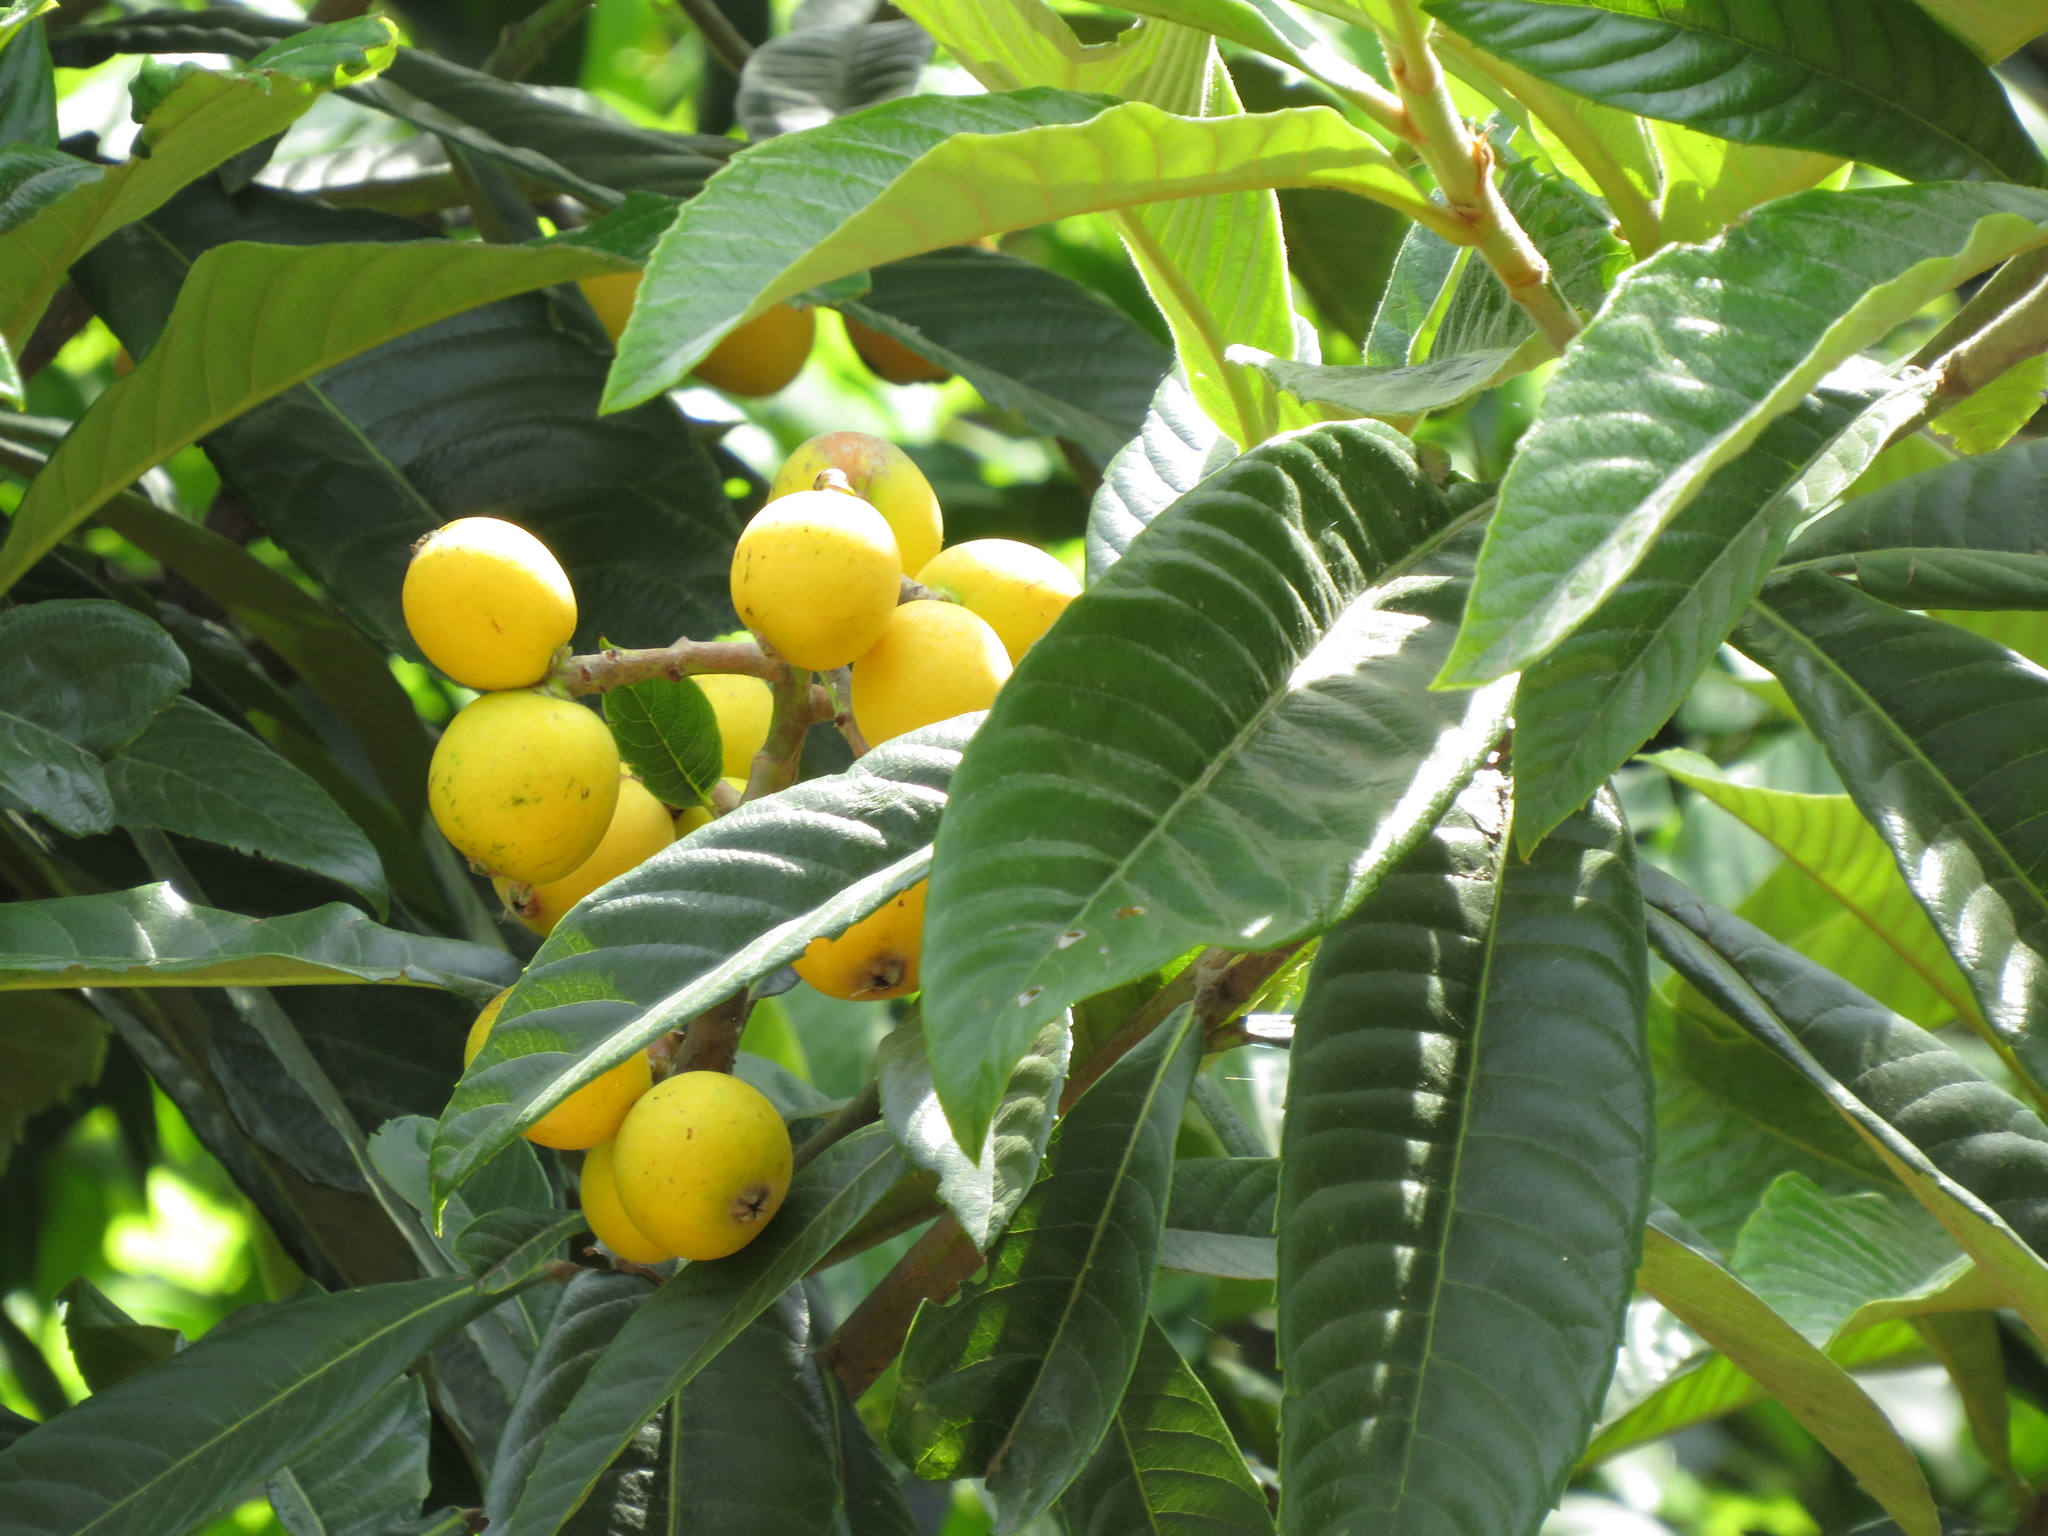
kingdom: Plantae
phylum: Tracheophyta
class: Magnoliopsida
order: Rosales
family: Rosaceae
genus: Rhaphiolepis
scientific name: Rhaphiolepis bibas
